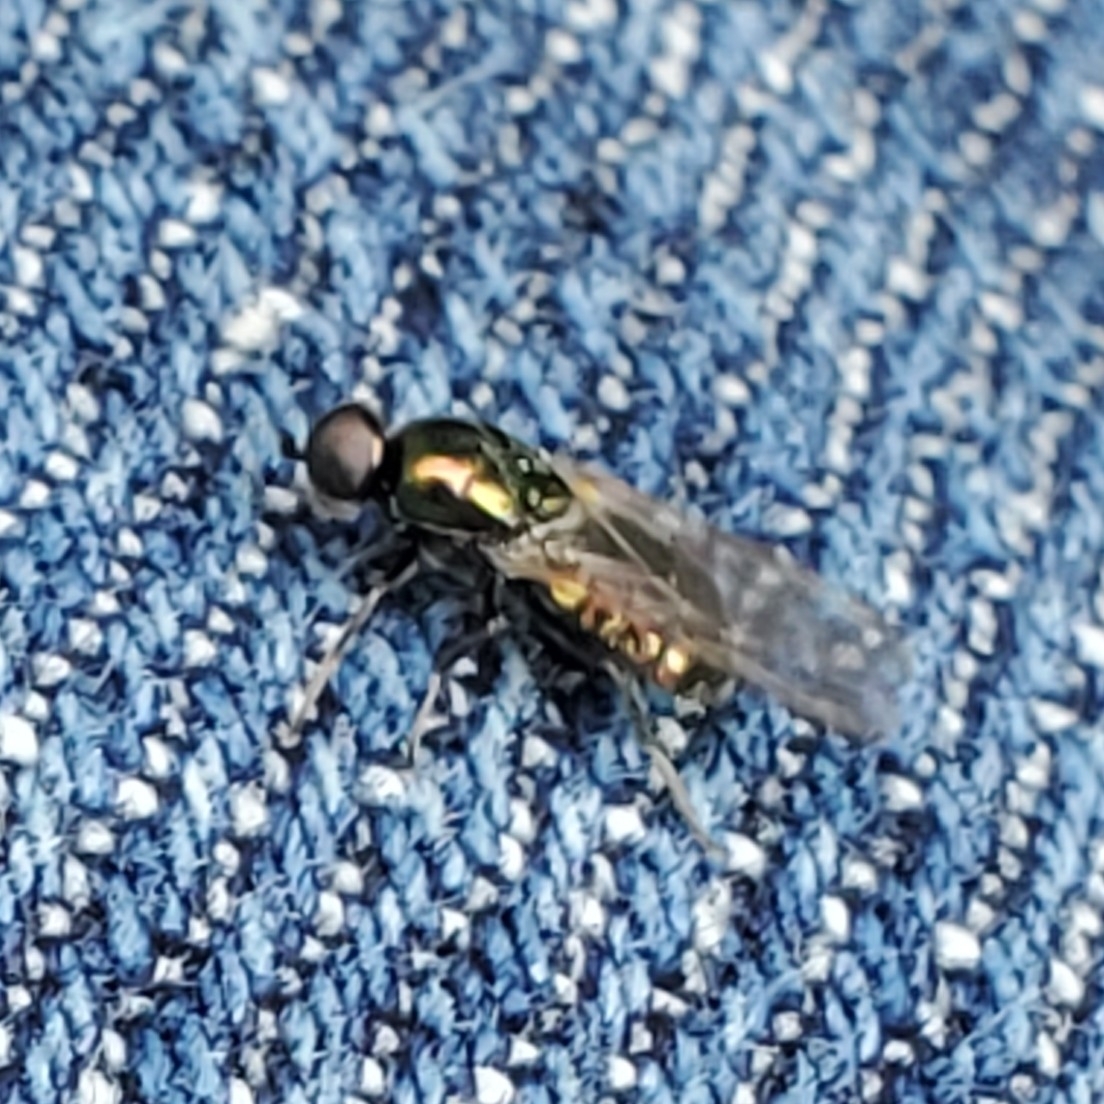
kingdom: Animalia
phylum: Arthropoda
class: Insecta
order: Diptera
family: Stratiomyidae
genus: Microchrysa
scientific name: Microchrysa polita
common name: Black-horned gem
